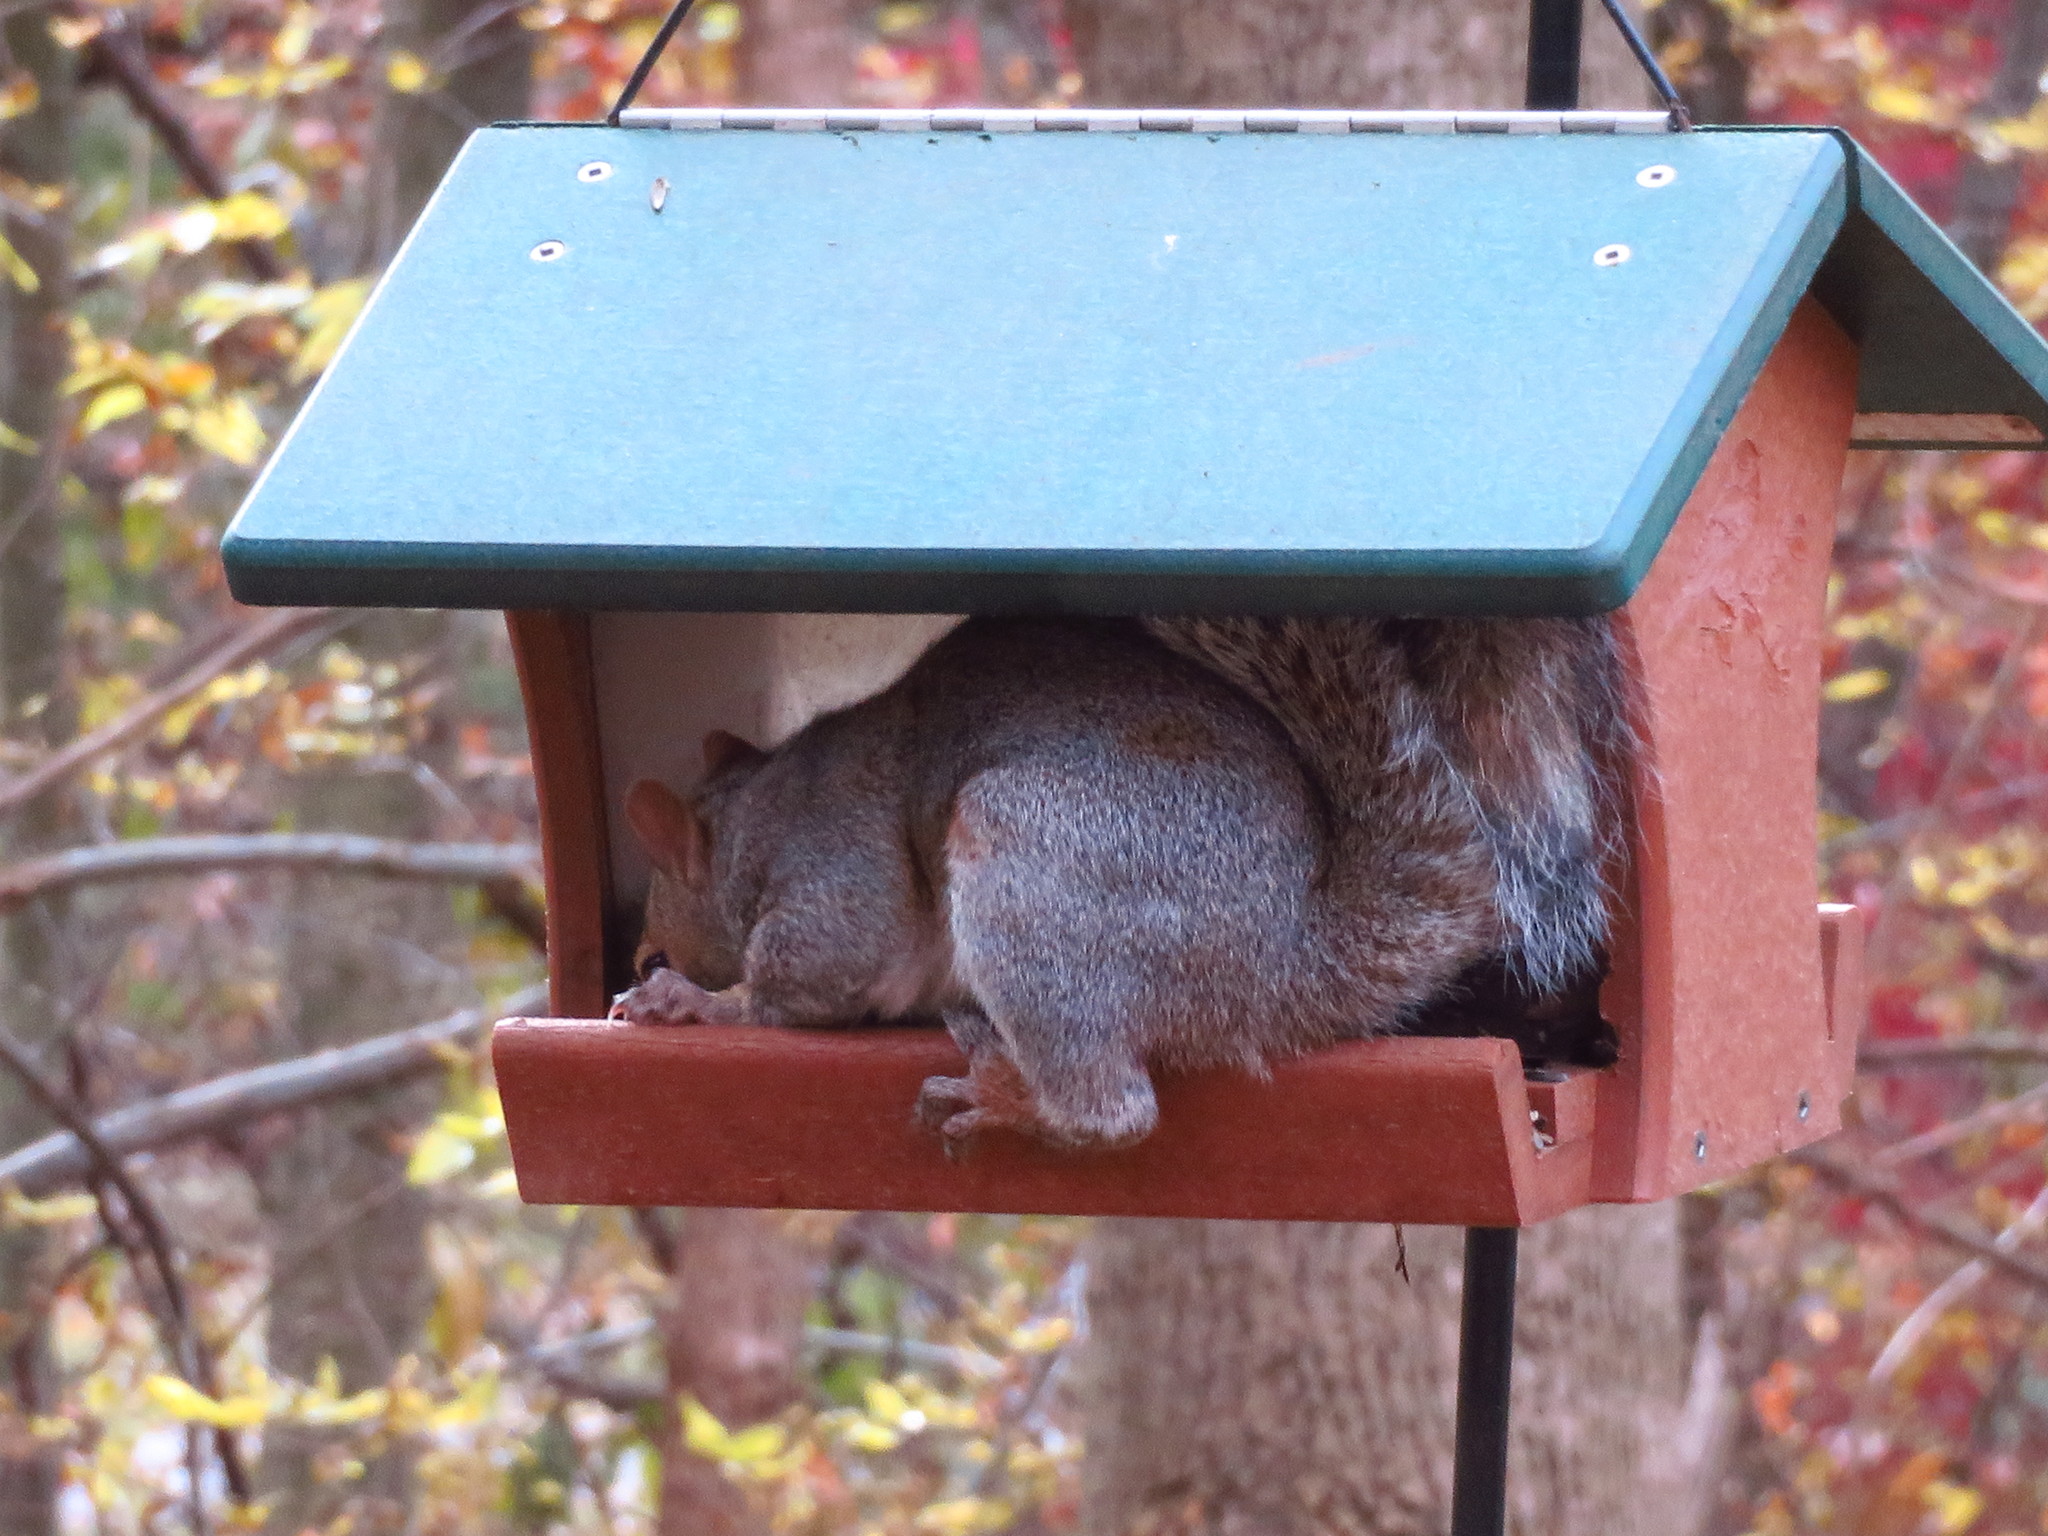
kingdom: Animalia
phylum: Chordata
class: Mammalia
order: Rodentia
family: Sciuridae
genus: Sciurus
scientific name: Sciurus carolinensis
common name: Eastern gray squirrel
